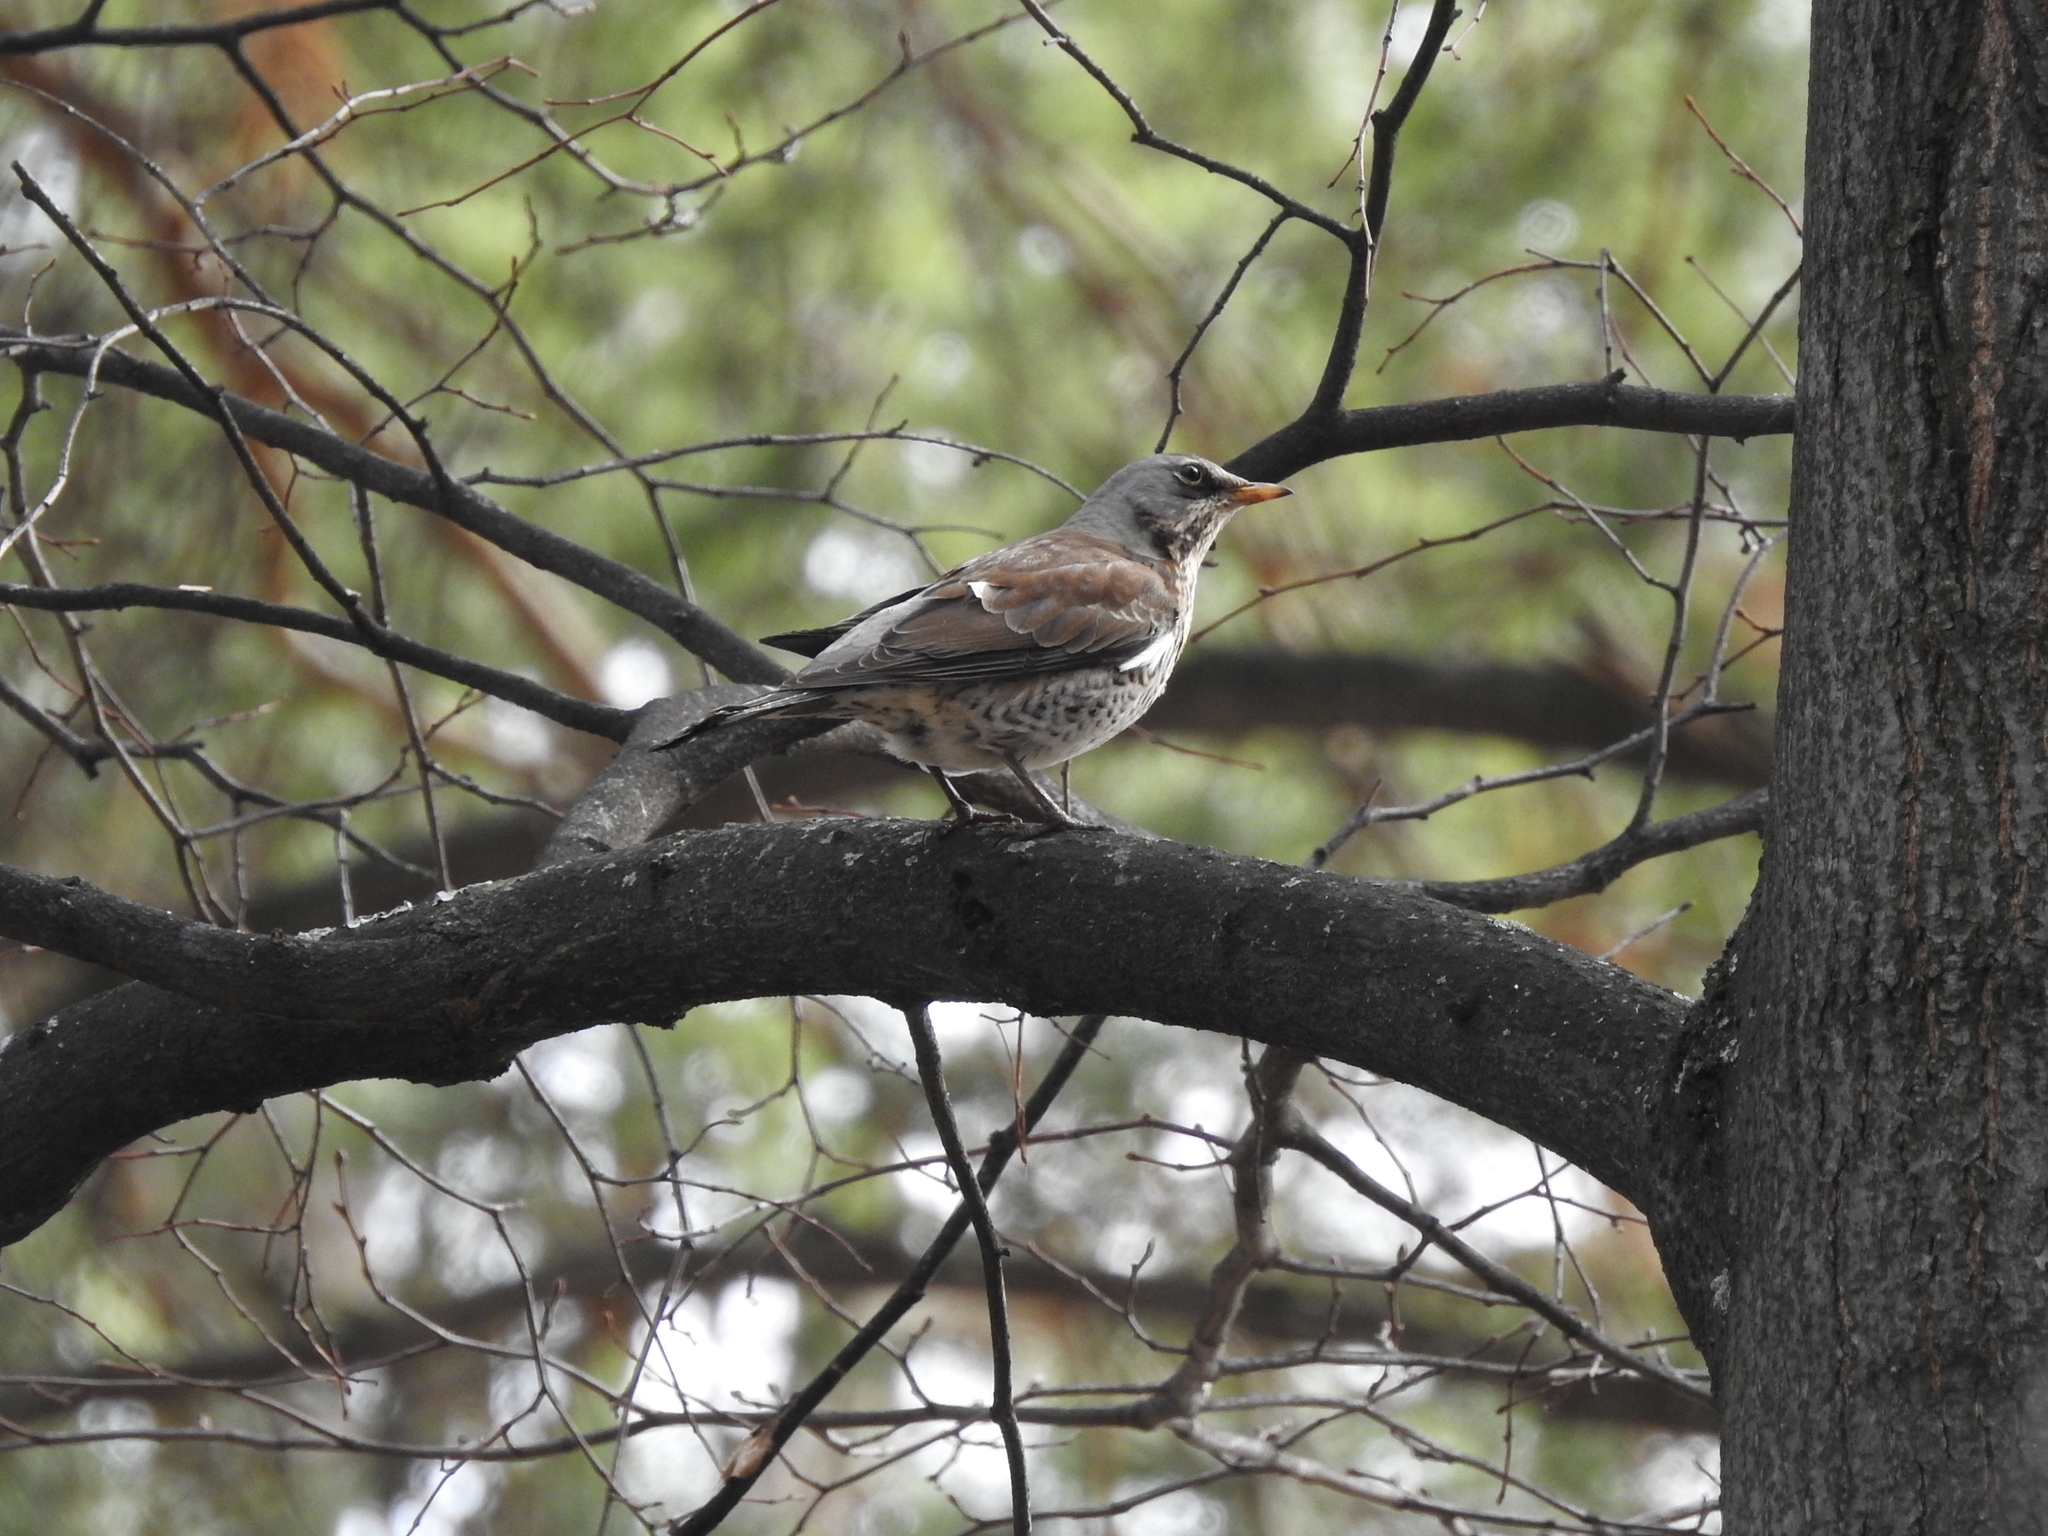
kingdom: Animalia
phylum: Chordata
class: Aves
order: Passeriformes
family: Turdidae
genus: Turdus
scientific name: Turdus pilaris
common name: Fieldfare
